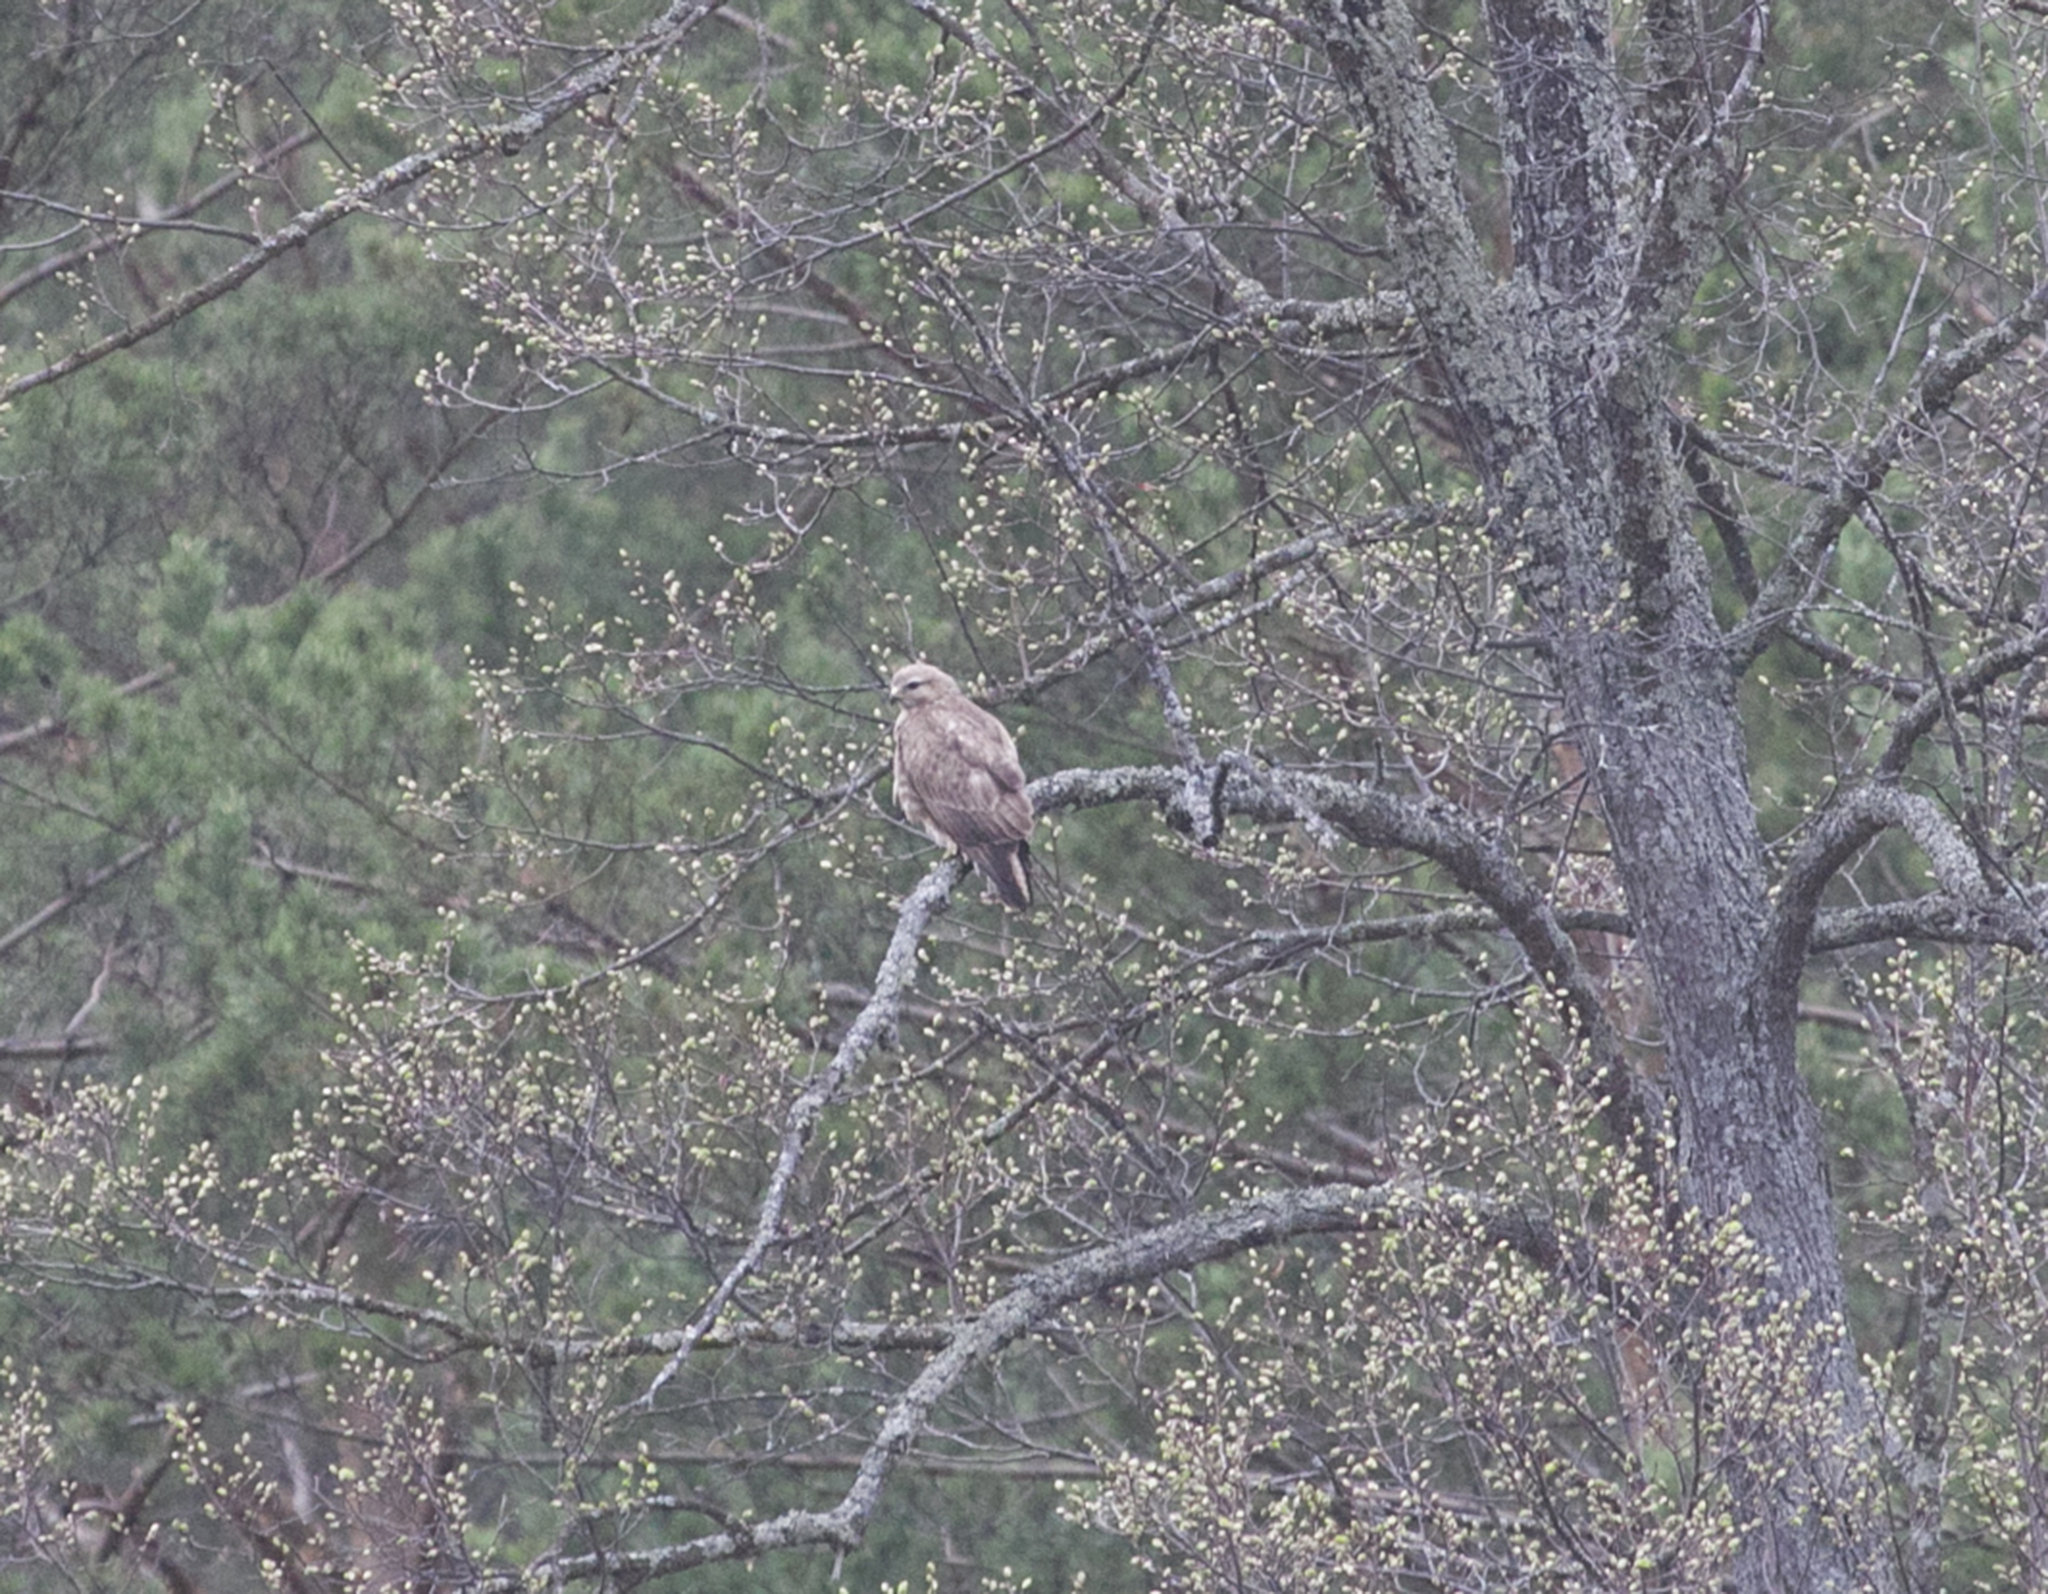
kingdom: Animalia
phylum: Chordata
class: Aves
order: Accipitriformes
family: Accipitridae
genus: Buteo
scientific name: Buteo buteo
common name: Common buzzard
